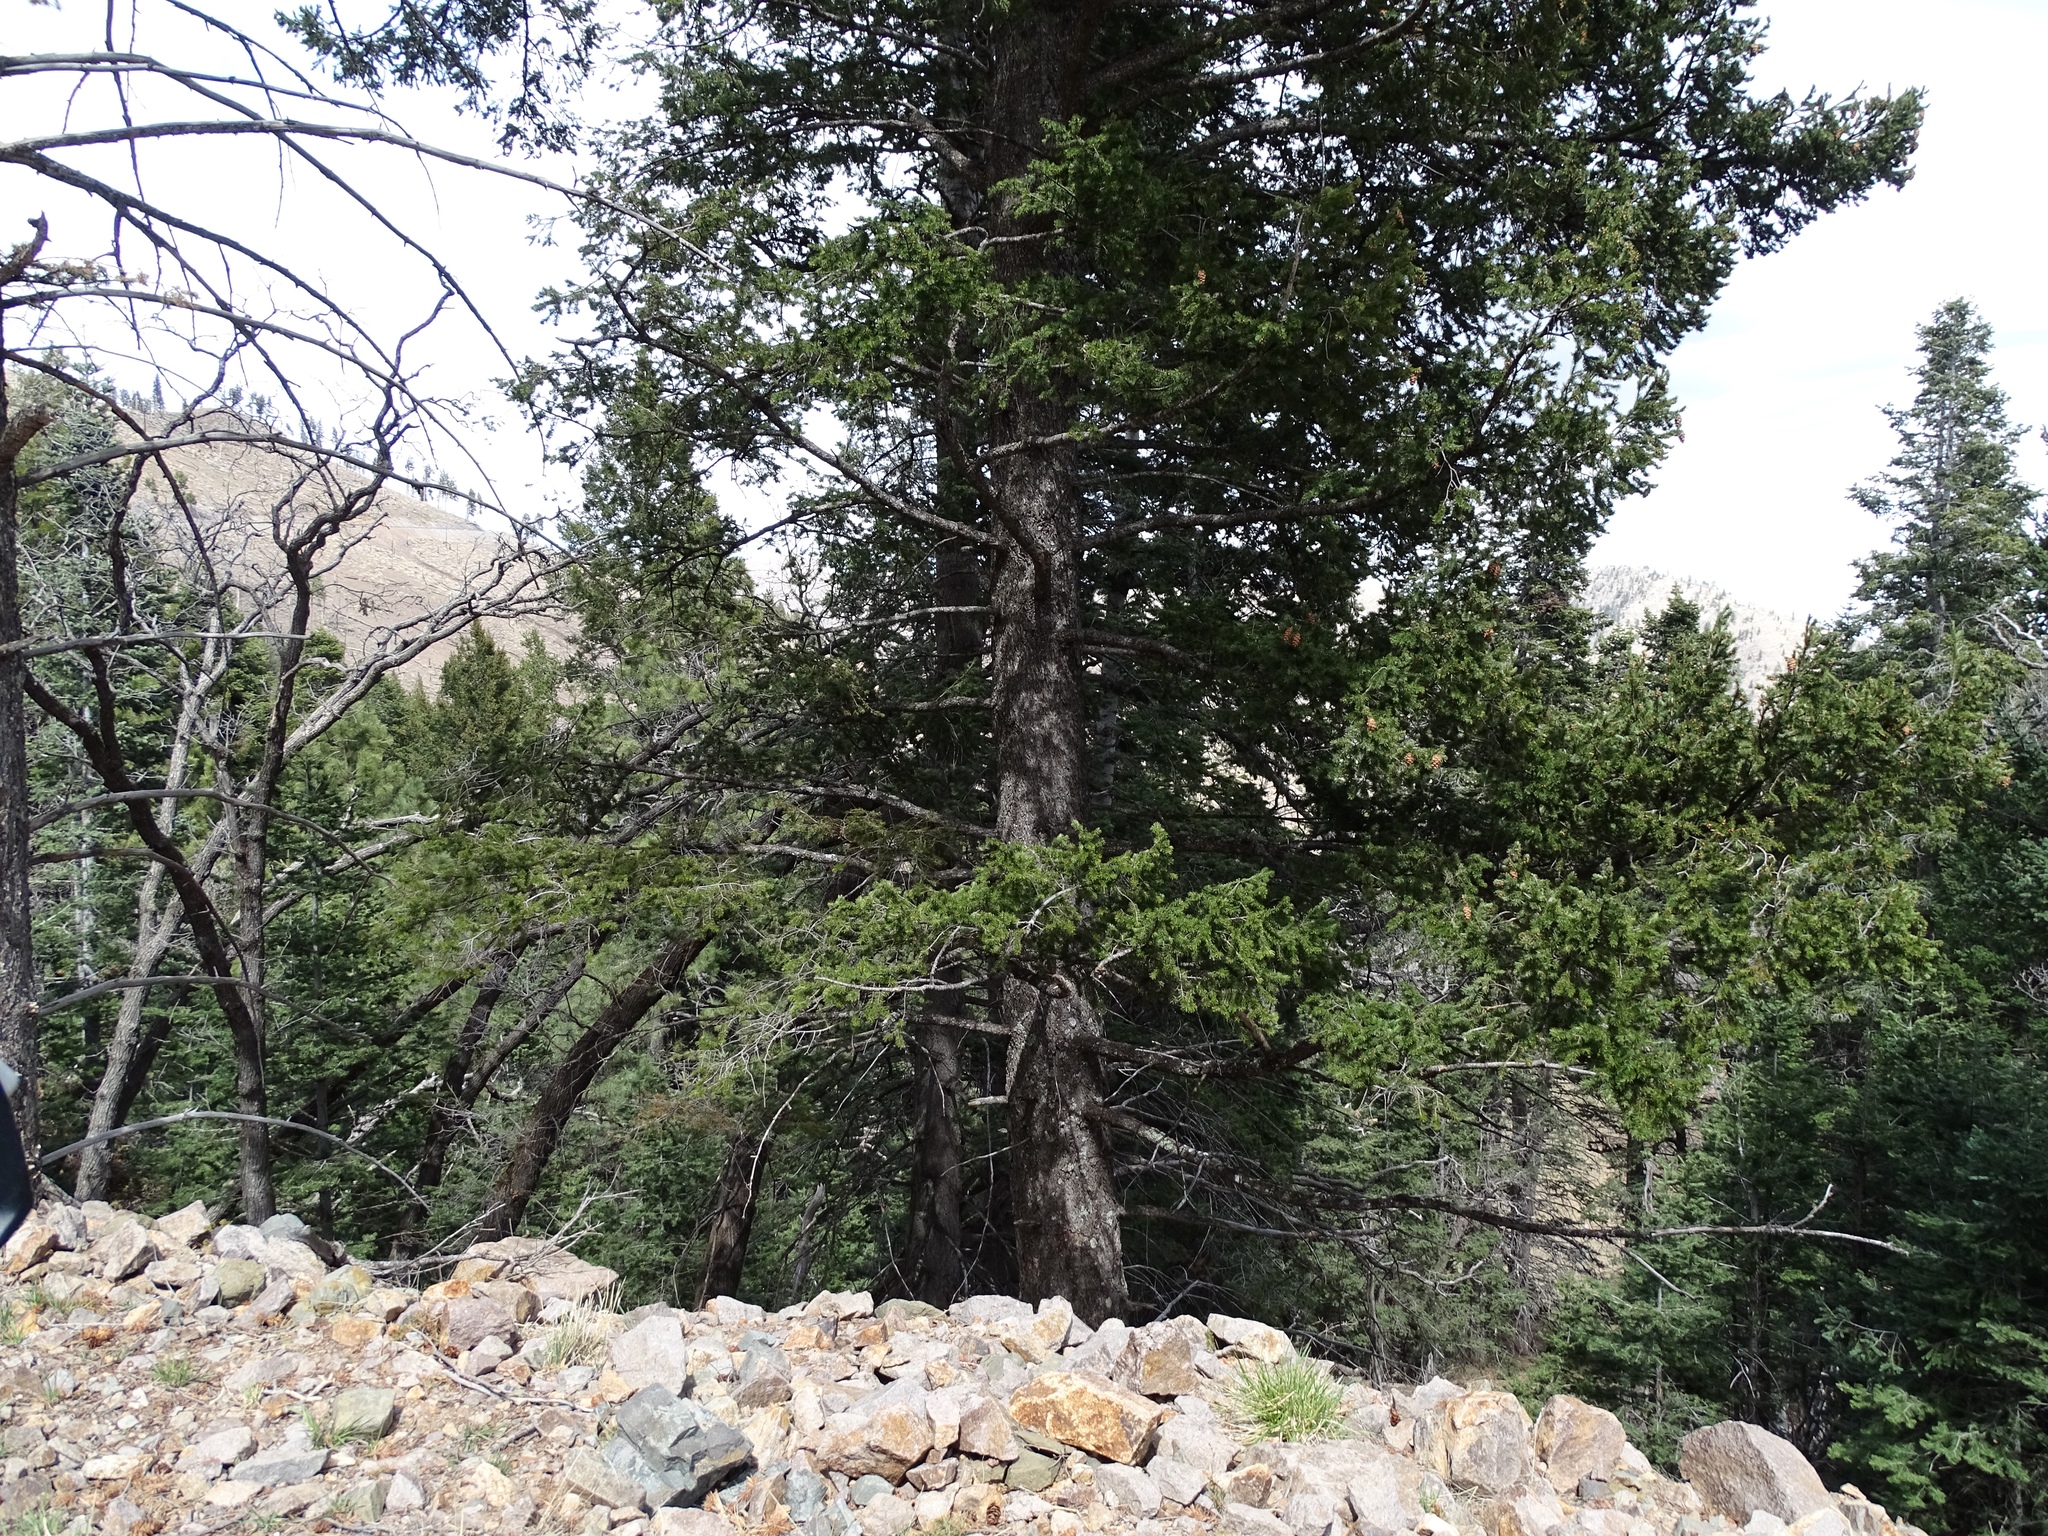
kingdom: Plantae
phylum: Tracheophyta
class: Pinopsida
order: Pinales
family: Pinaceae
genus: Pseudotsuga
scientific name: Pseudotsuga menziesii
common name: Douglas fir
